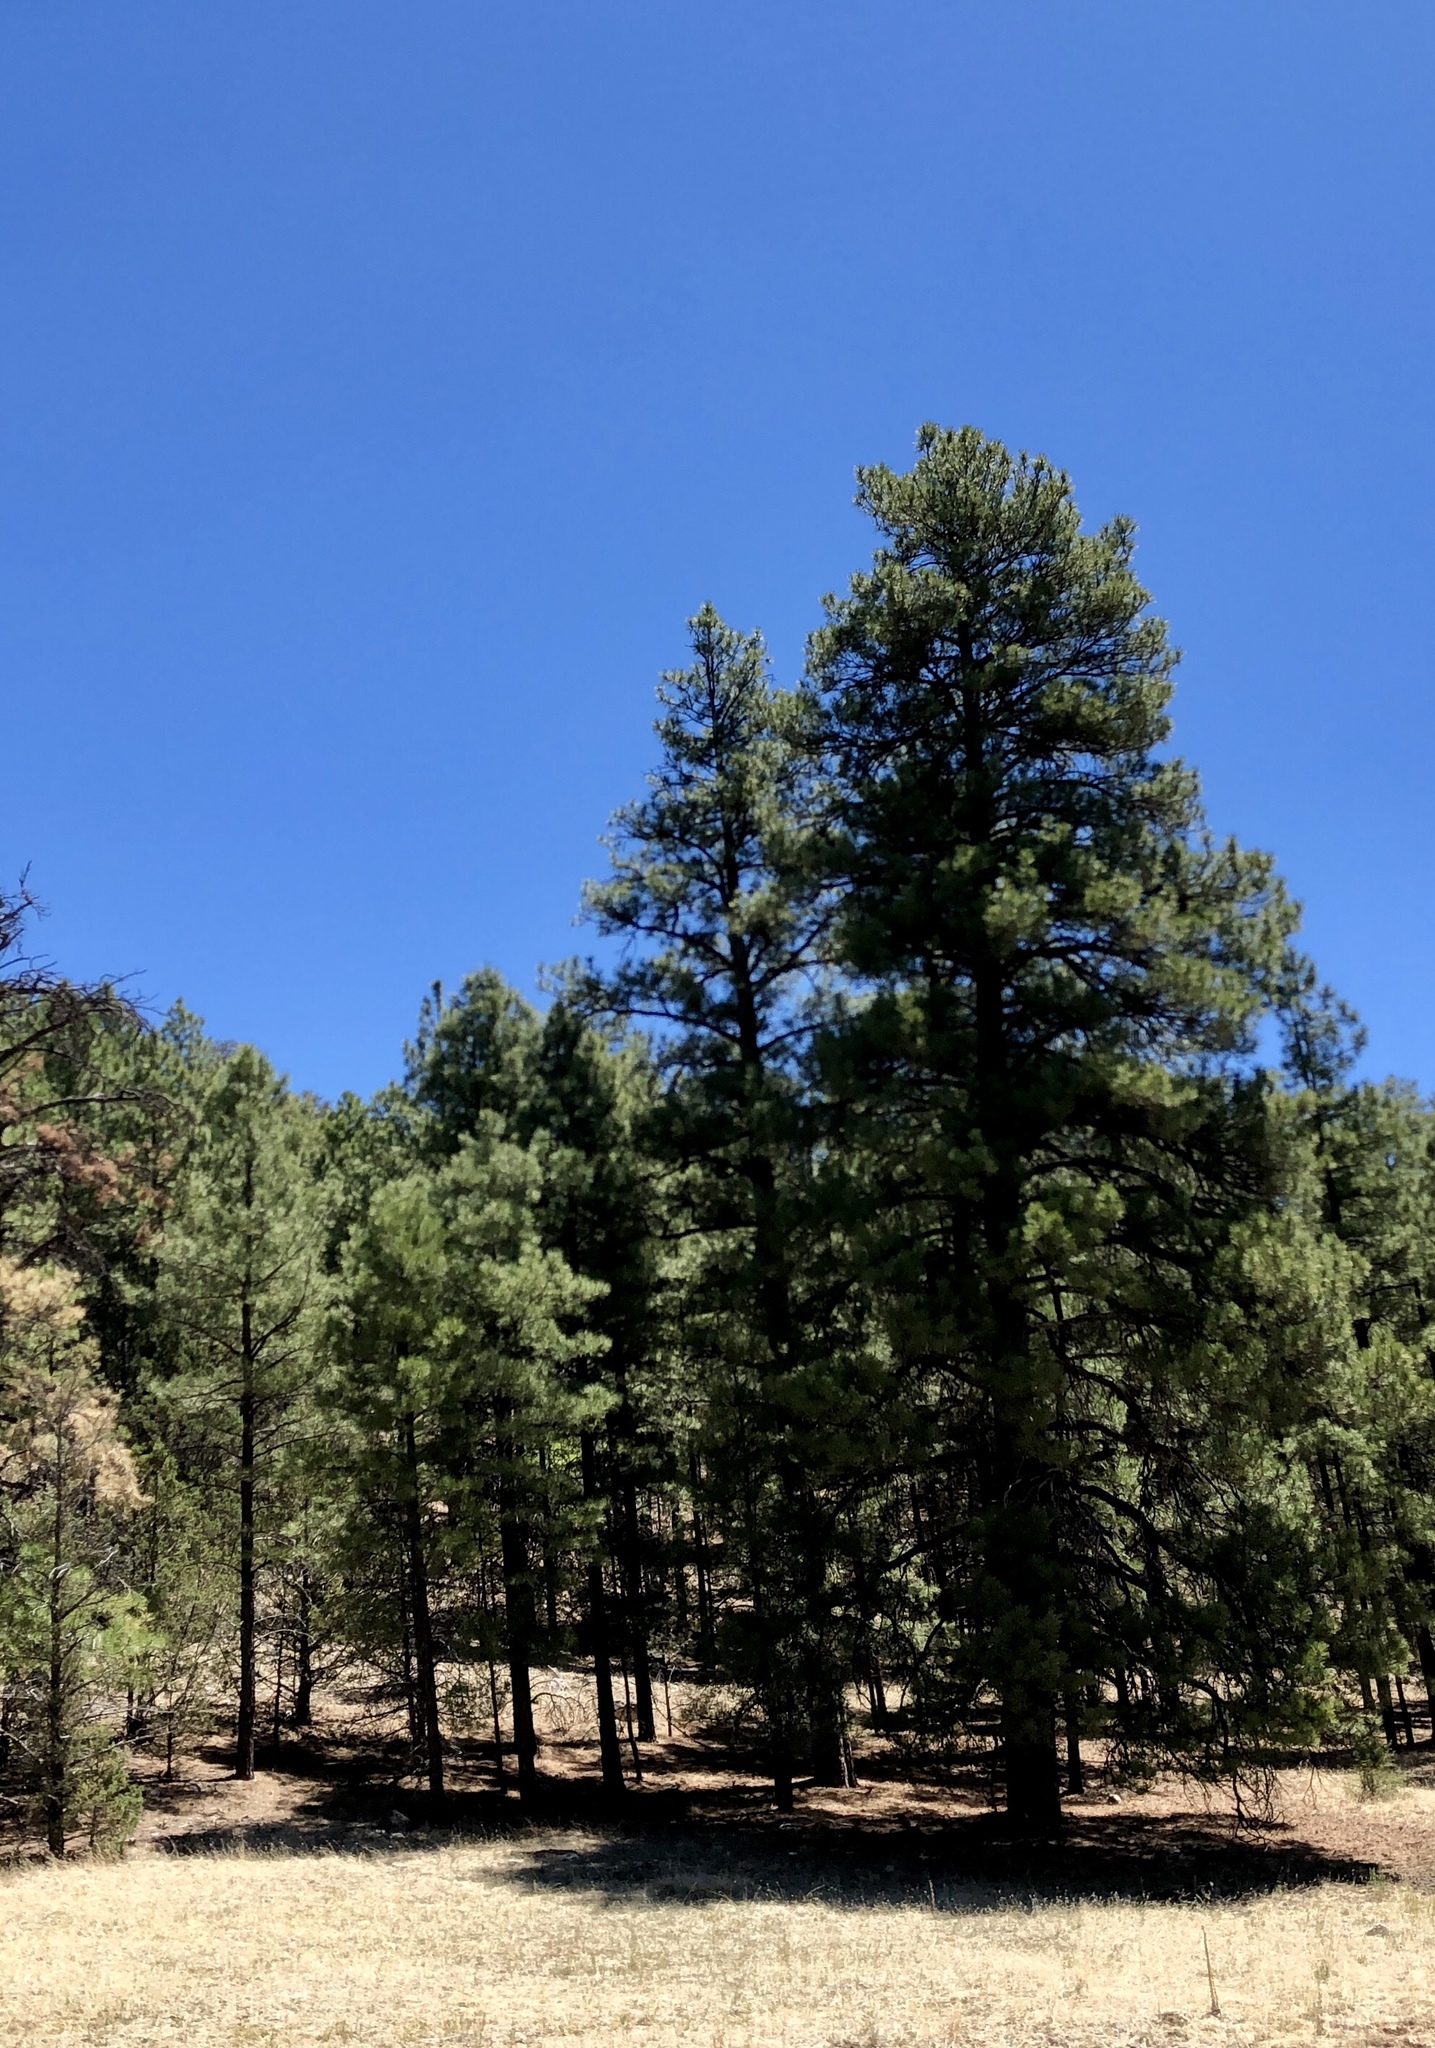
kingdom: Plantae
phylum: Tracheophyta
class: Pinopsida
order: Pinales
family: Pinaceae
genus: Pinus
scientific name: Pinus ponderosa
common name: Western yellow-pine
